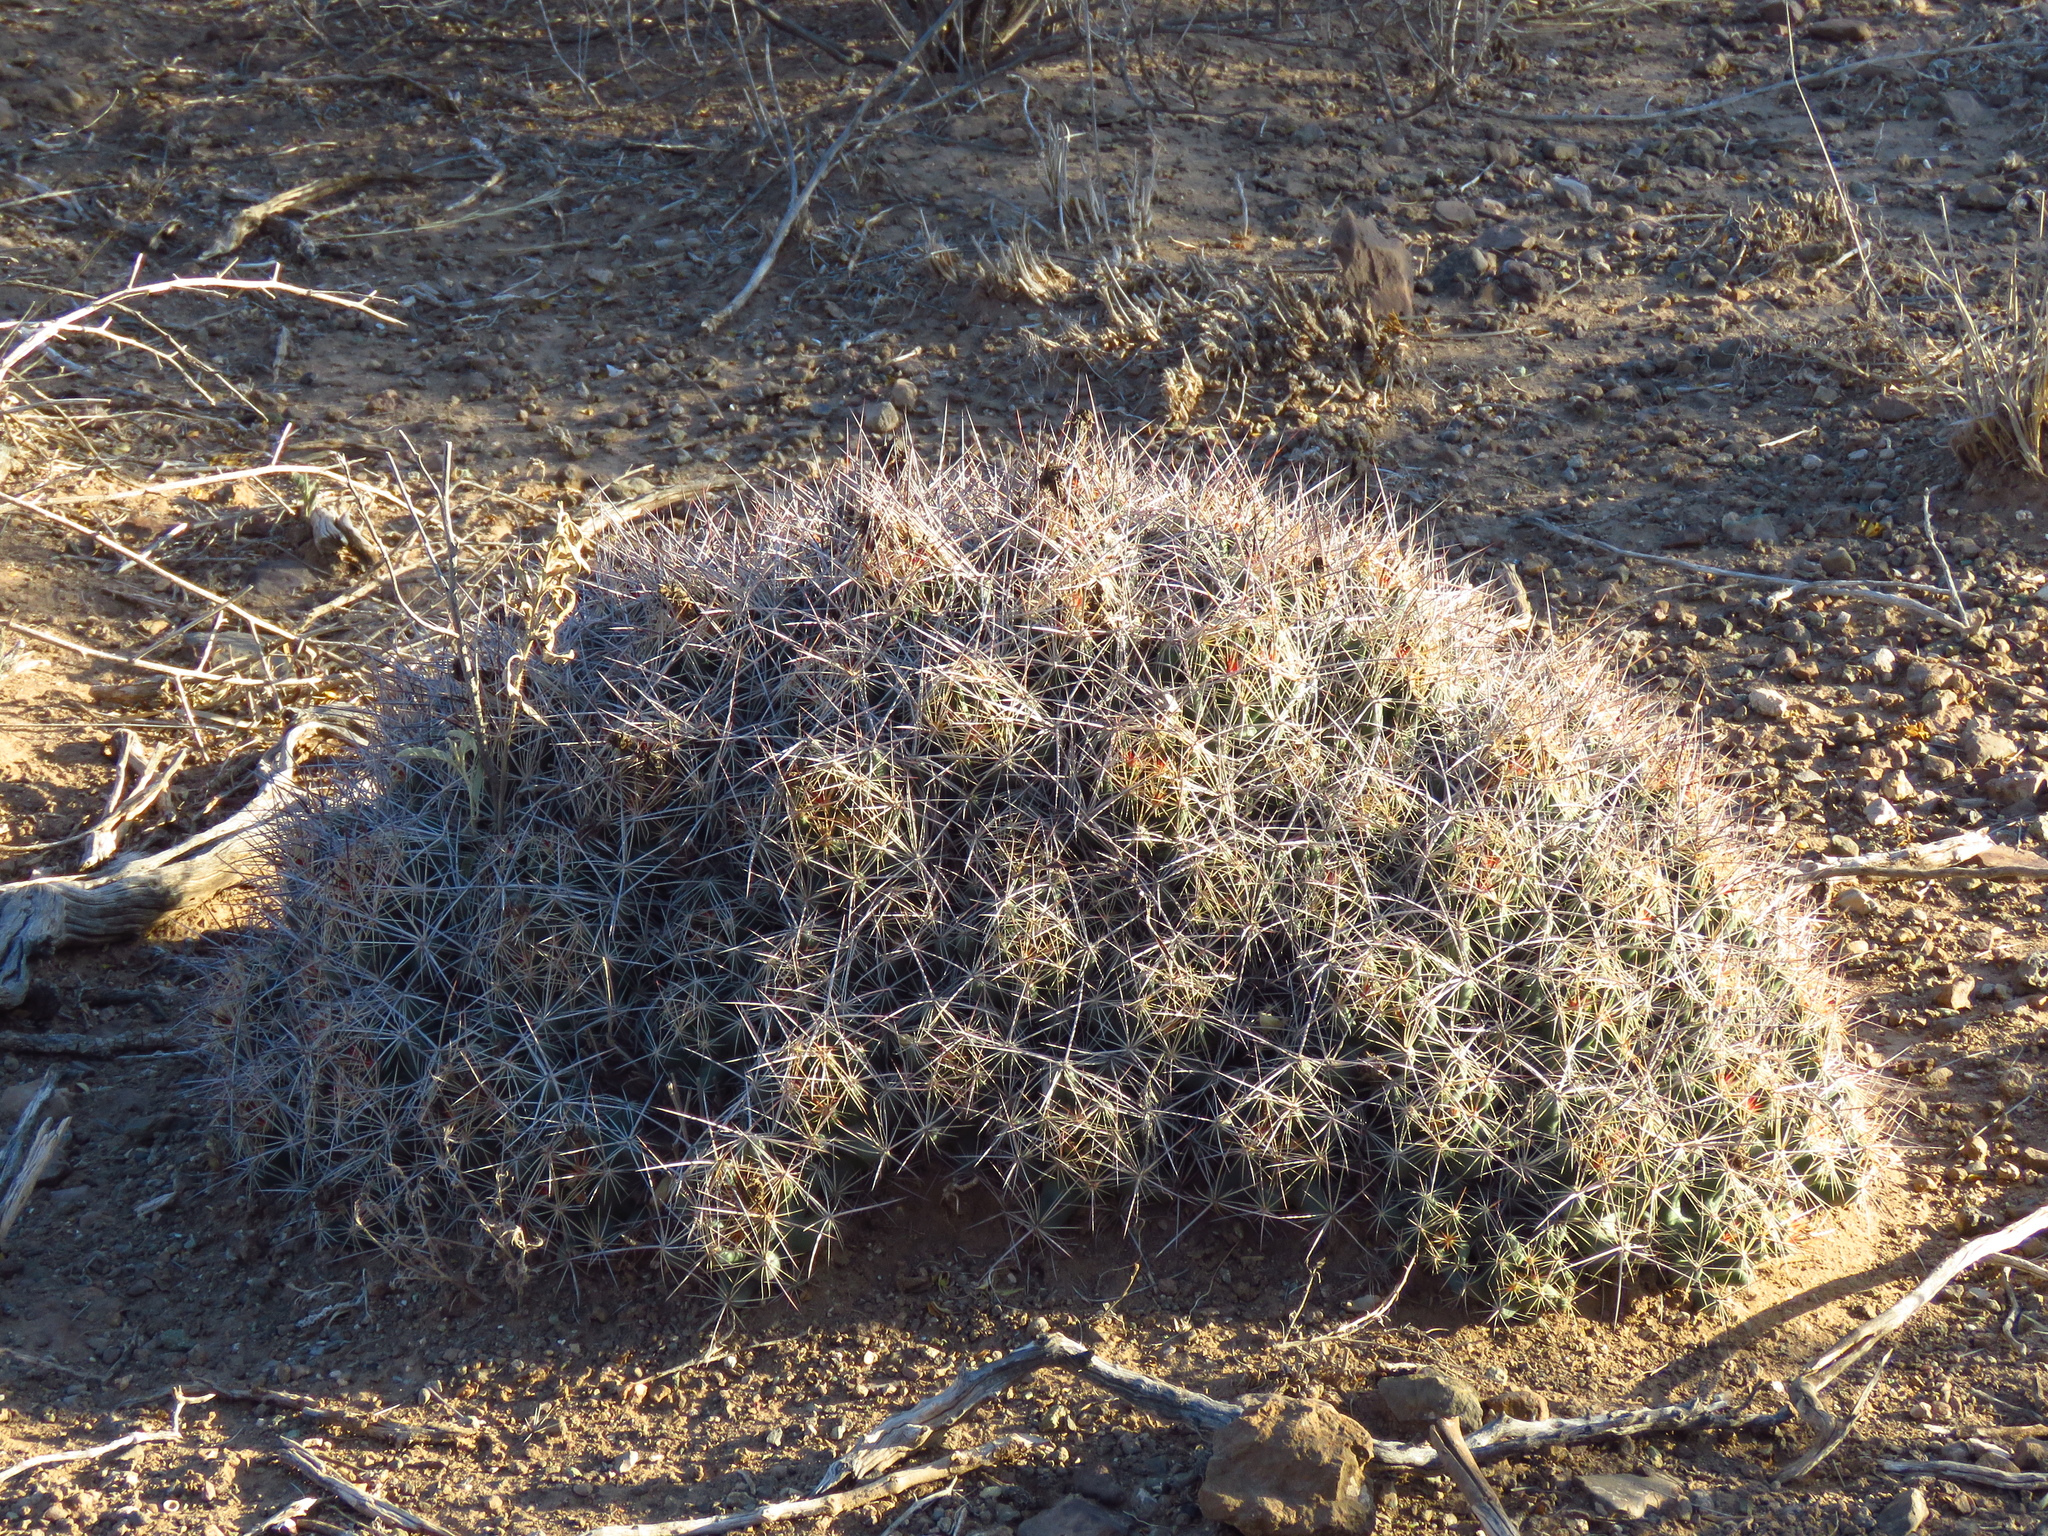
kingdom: Plantae
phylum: Tracheophyta
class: Magnoliopsida
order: Caryophyllales
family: Cactaceae
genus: Coryphantha
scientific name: Coryphantha macromeris
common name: Nipple beehive cactus
